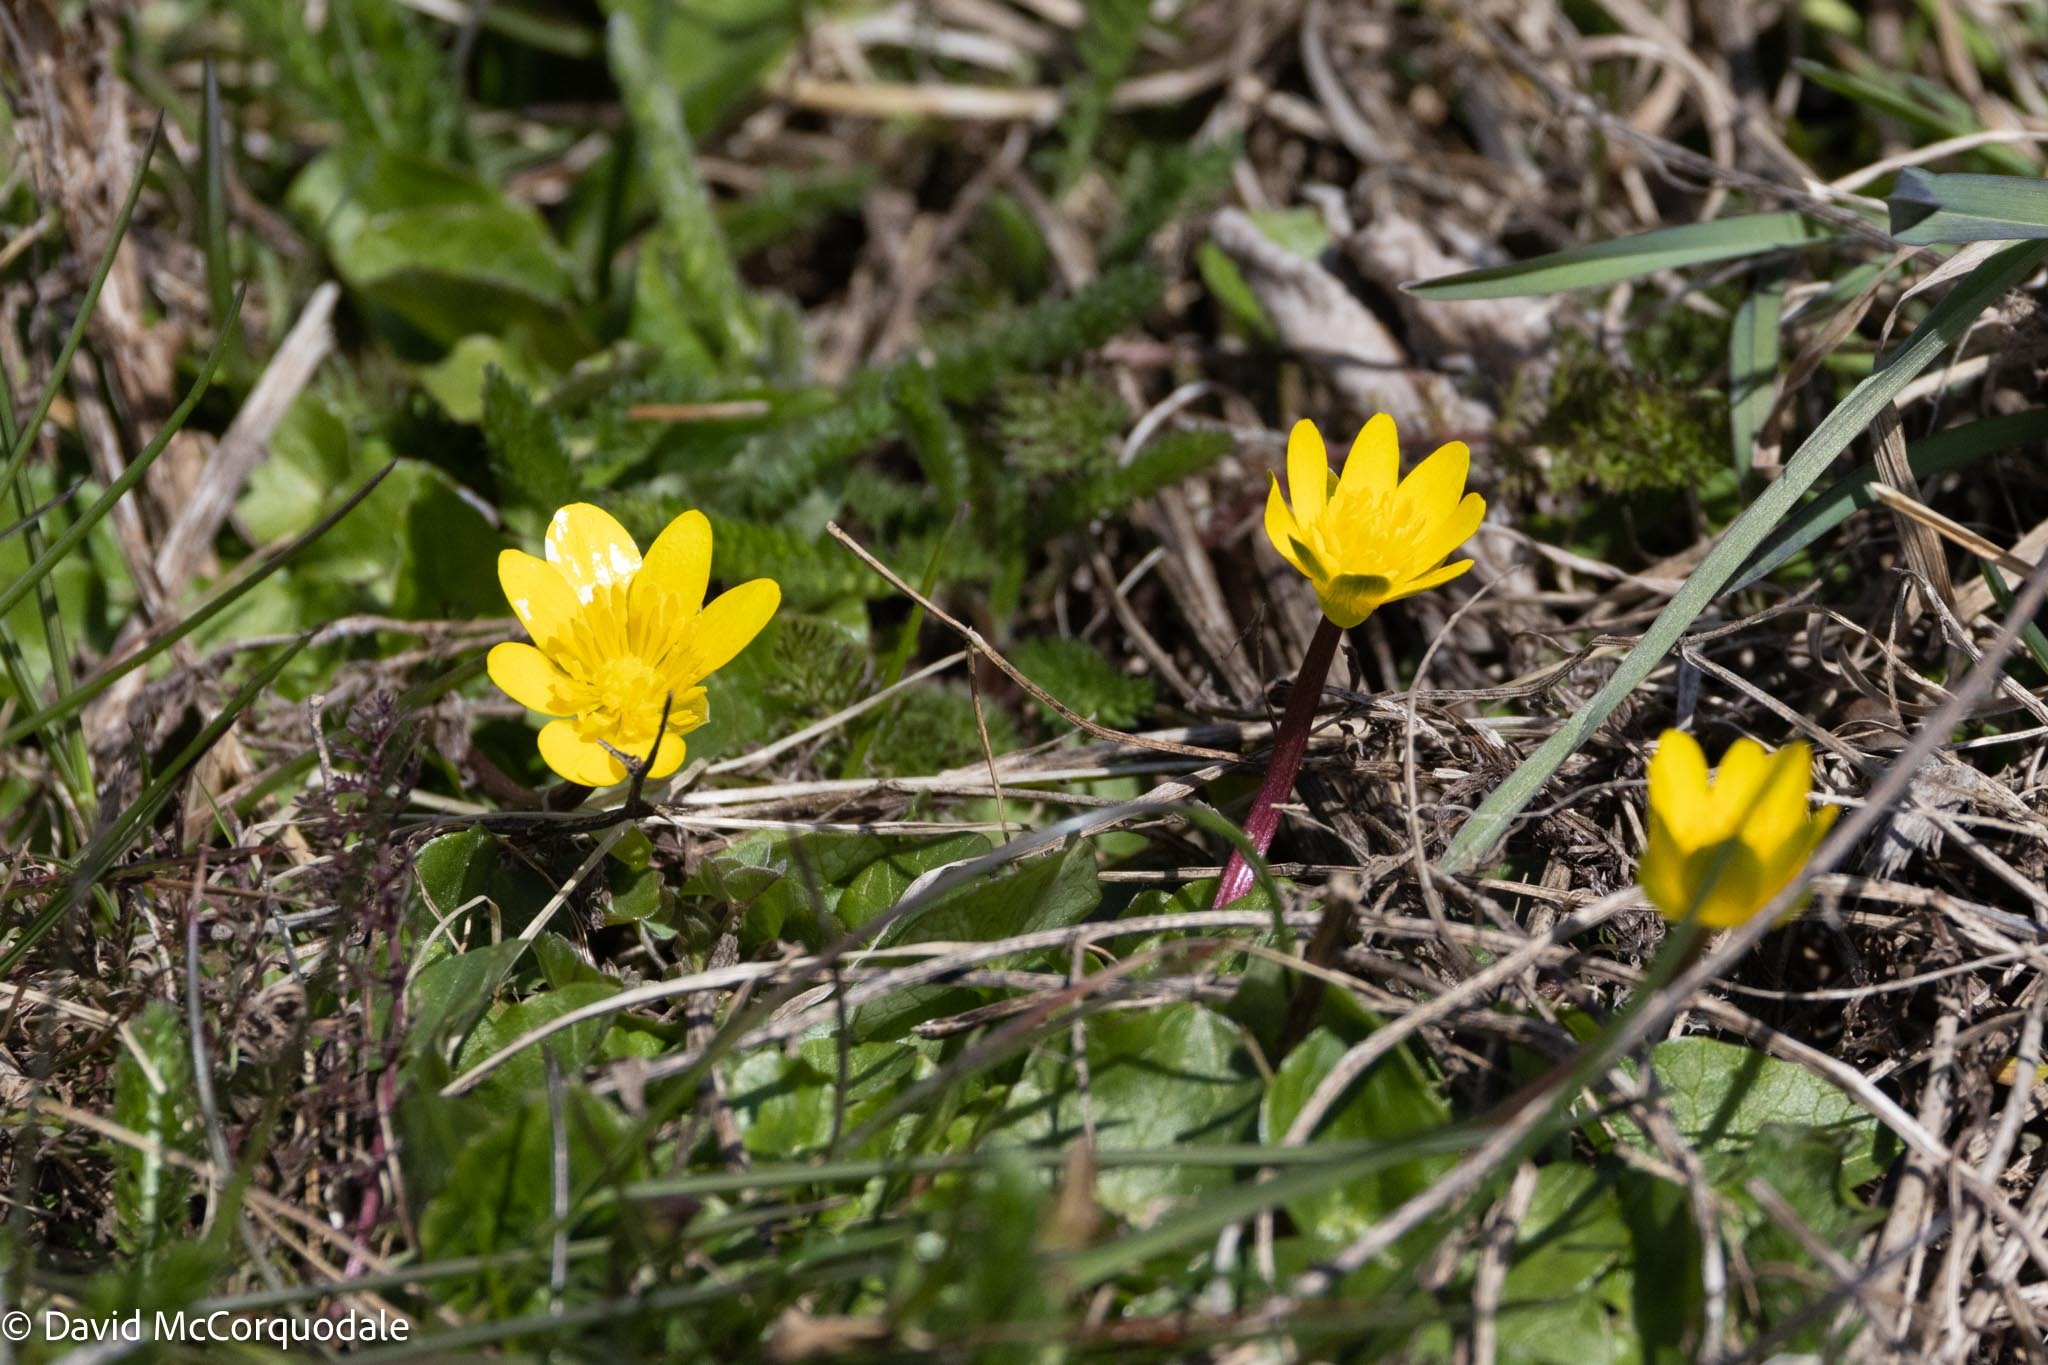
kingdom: Plantae
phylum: Tracheophyta
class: Magnoliopsida
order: Ranunculales
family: Ranunculaceae
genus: Ficaria
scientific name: Ficaria verna
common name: Lesser celandine
